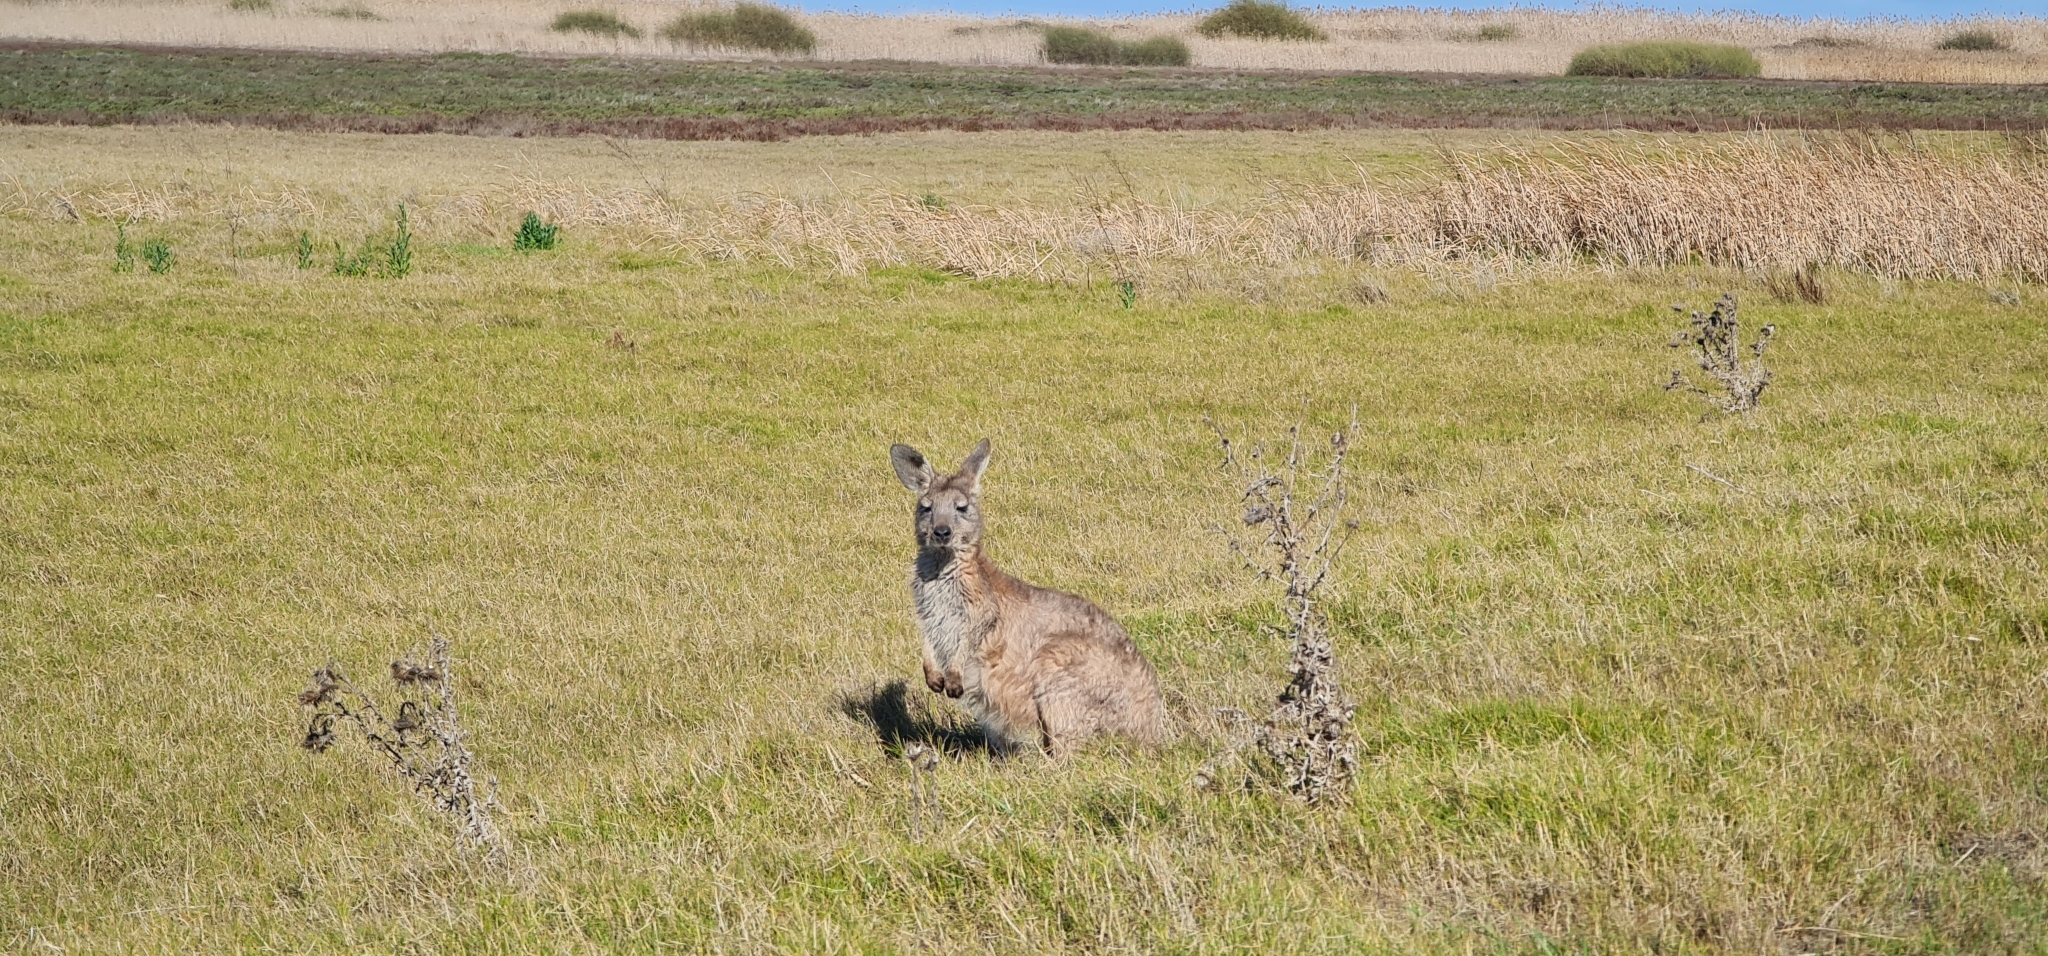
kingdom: Animalia
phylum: Chordata
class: Mammalia
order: Diprotodontia
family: Macropodidae
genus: Macropus
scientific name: Macropus robustus
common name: Eastern wallaroo
